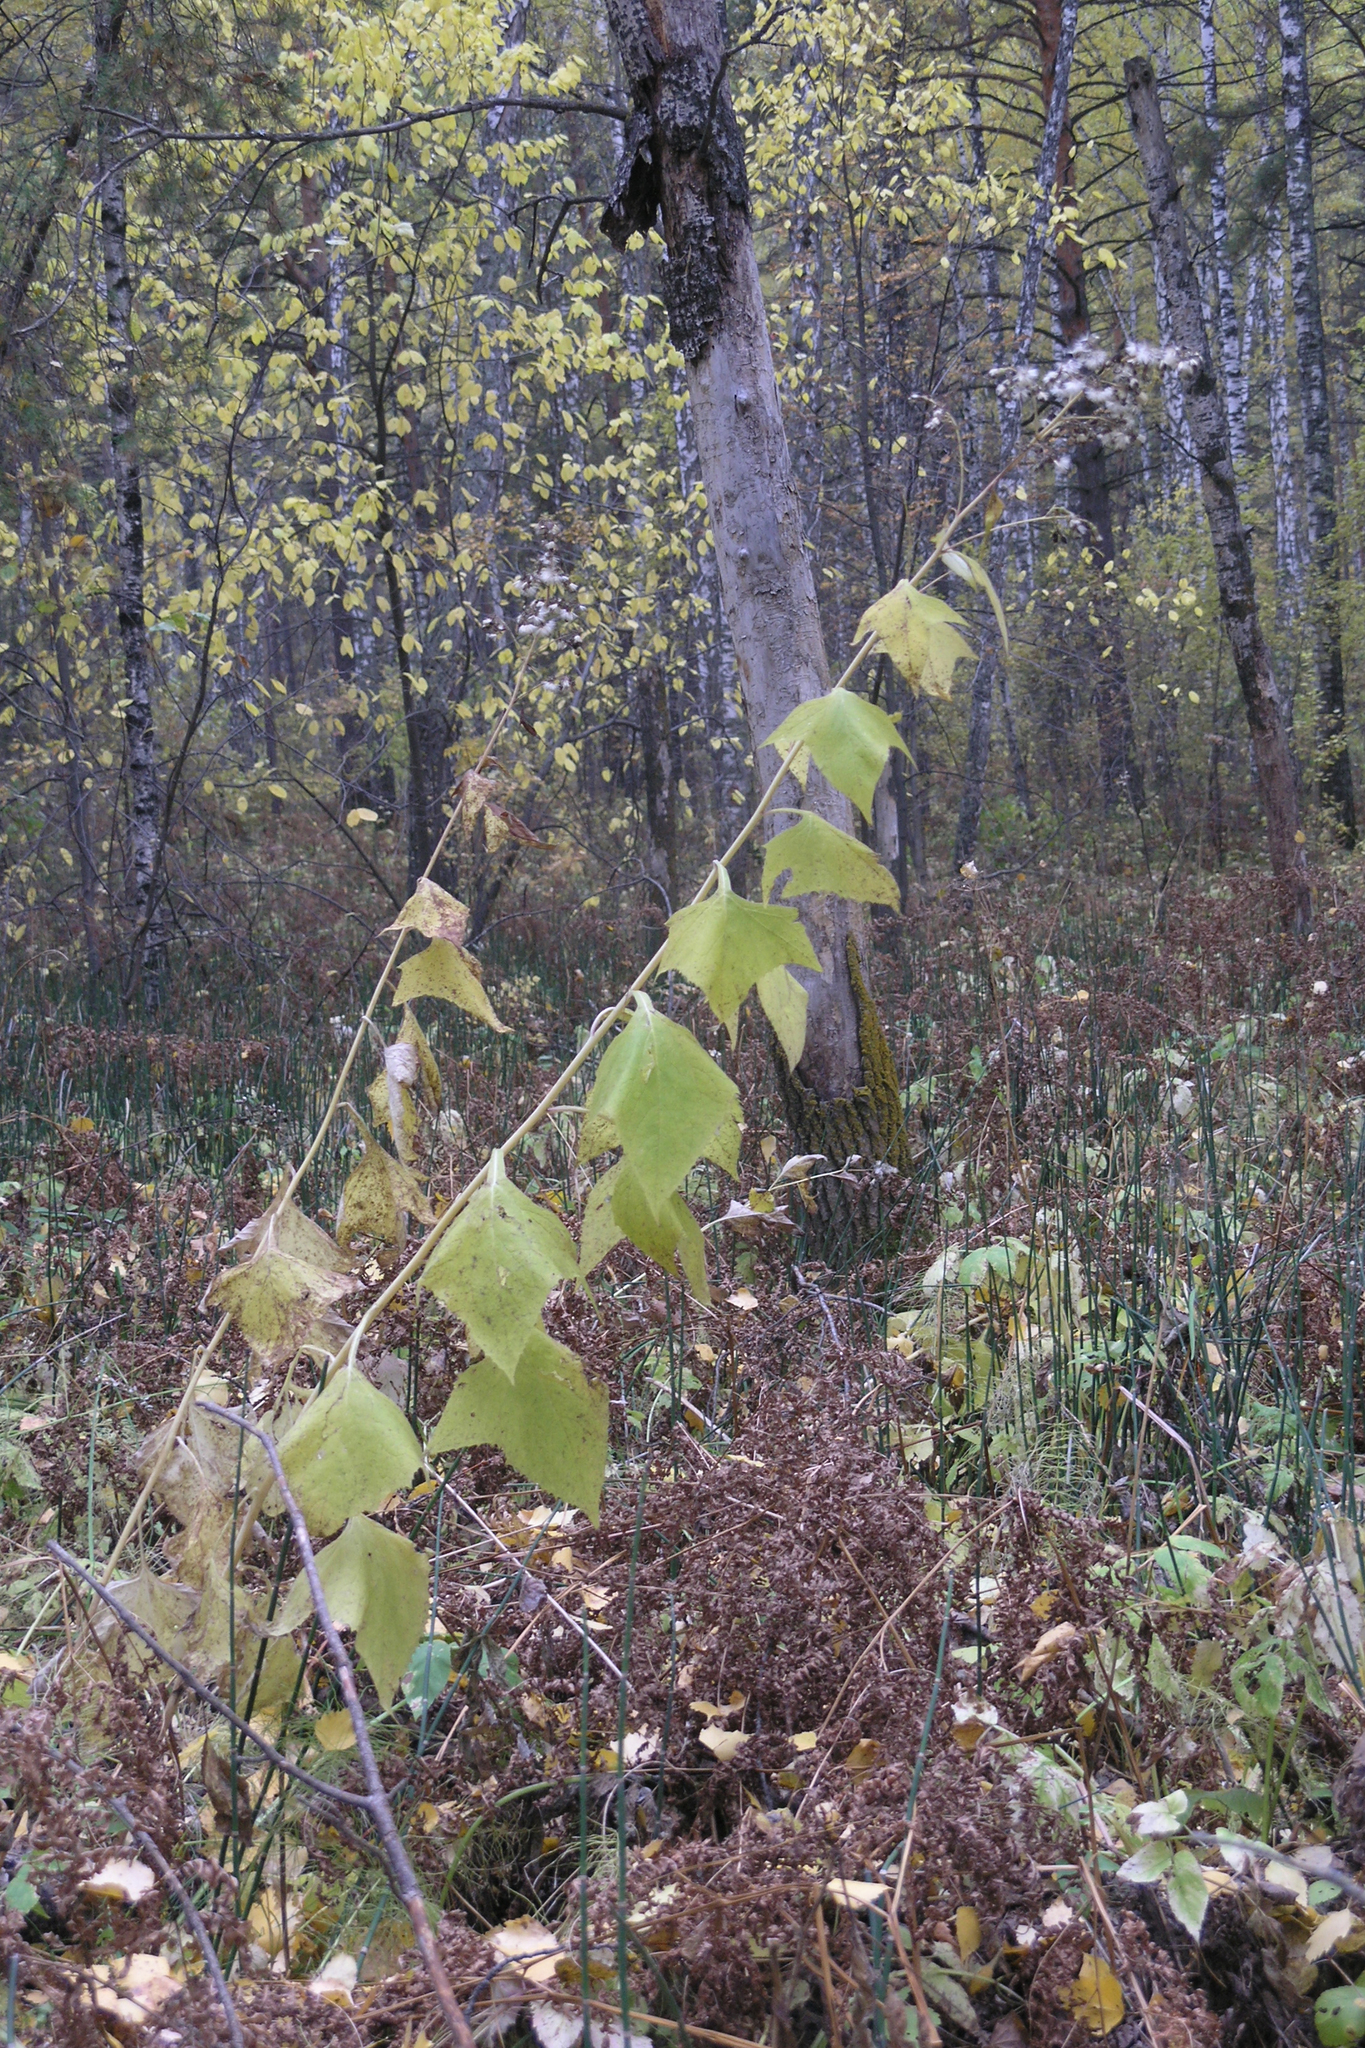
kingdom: Plantae
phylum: Tracheophyta
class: Magnoliopsida
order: Asterales
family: Asteraceae
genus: Parasenecio
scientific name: Parasenecio hastatus
